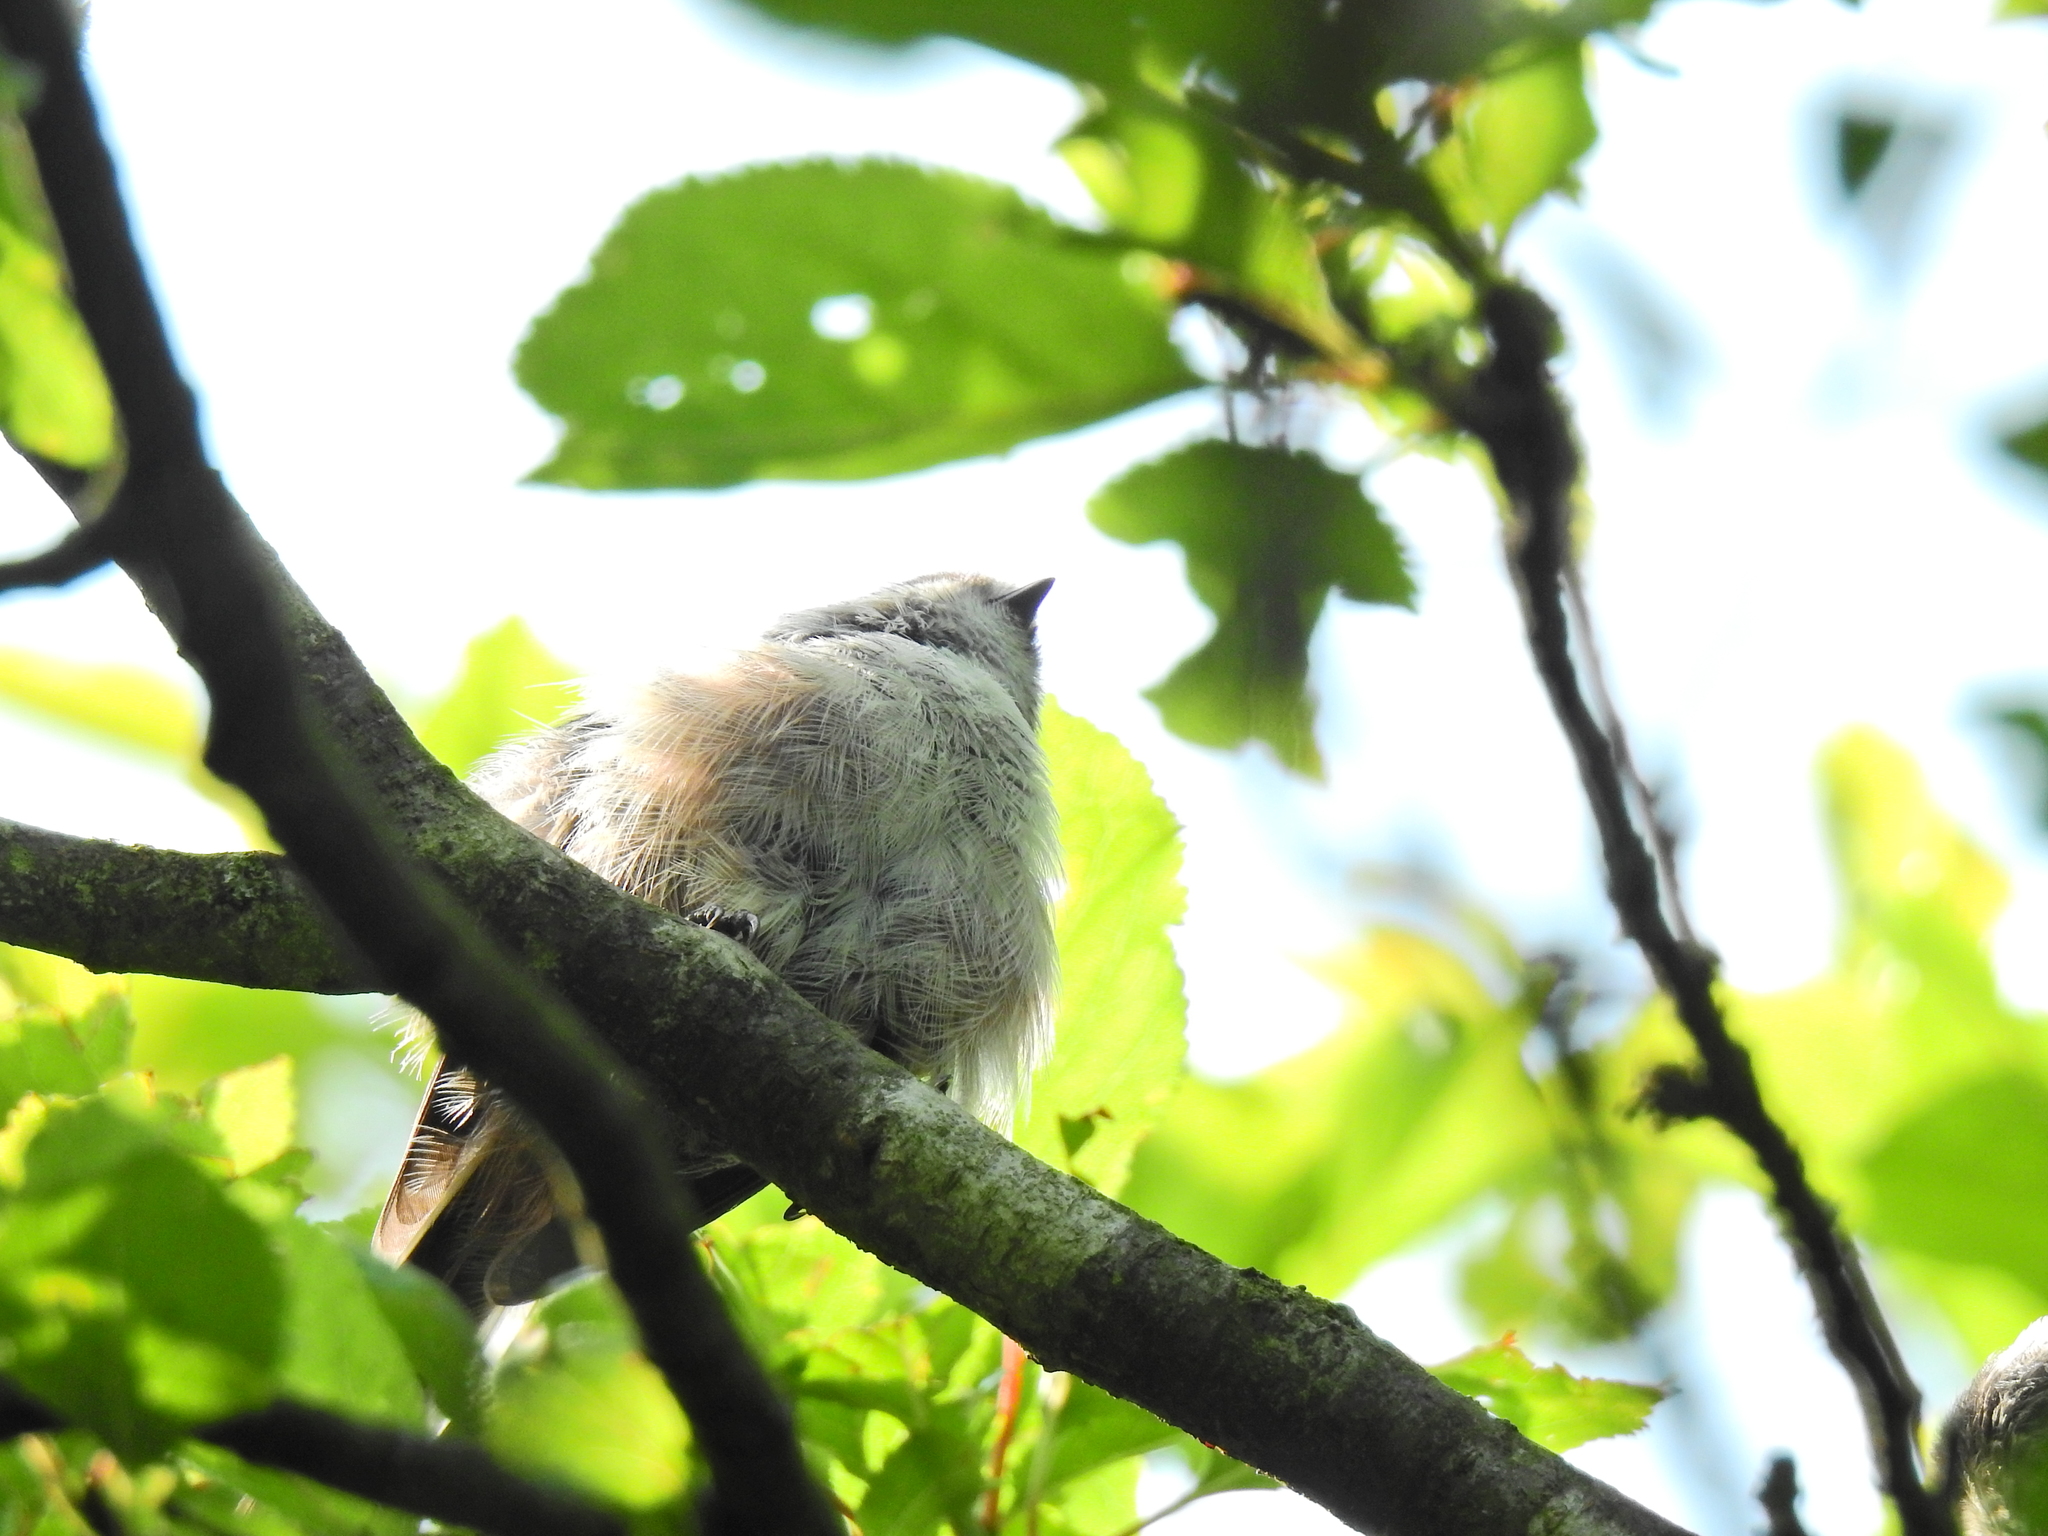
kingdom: Animalia
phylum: Chordata
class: Aves
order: Passeriformes
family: Aegithalidae
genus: Aegithalos
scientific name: Aegithalos caudatus
